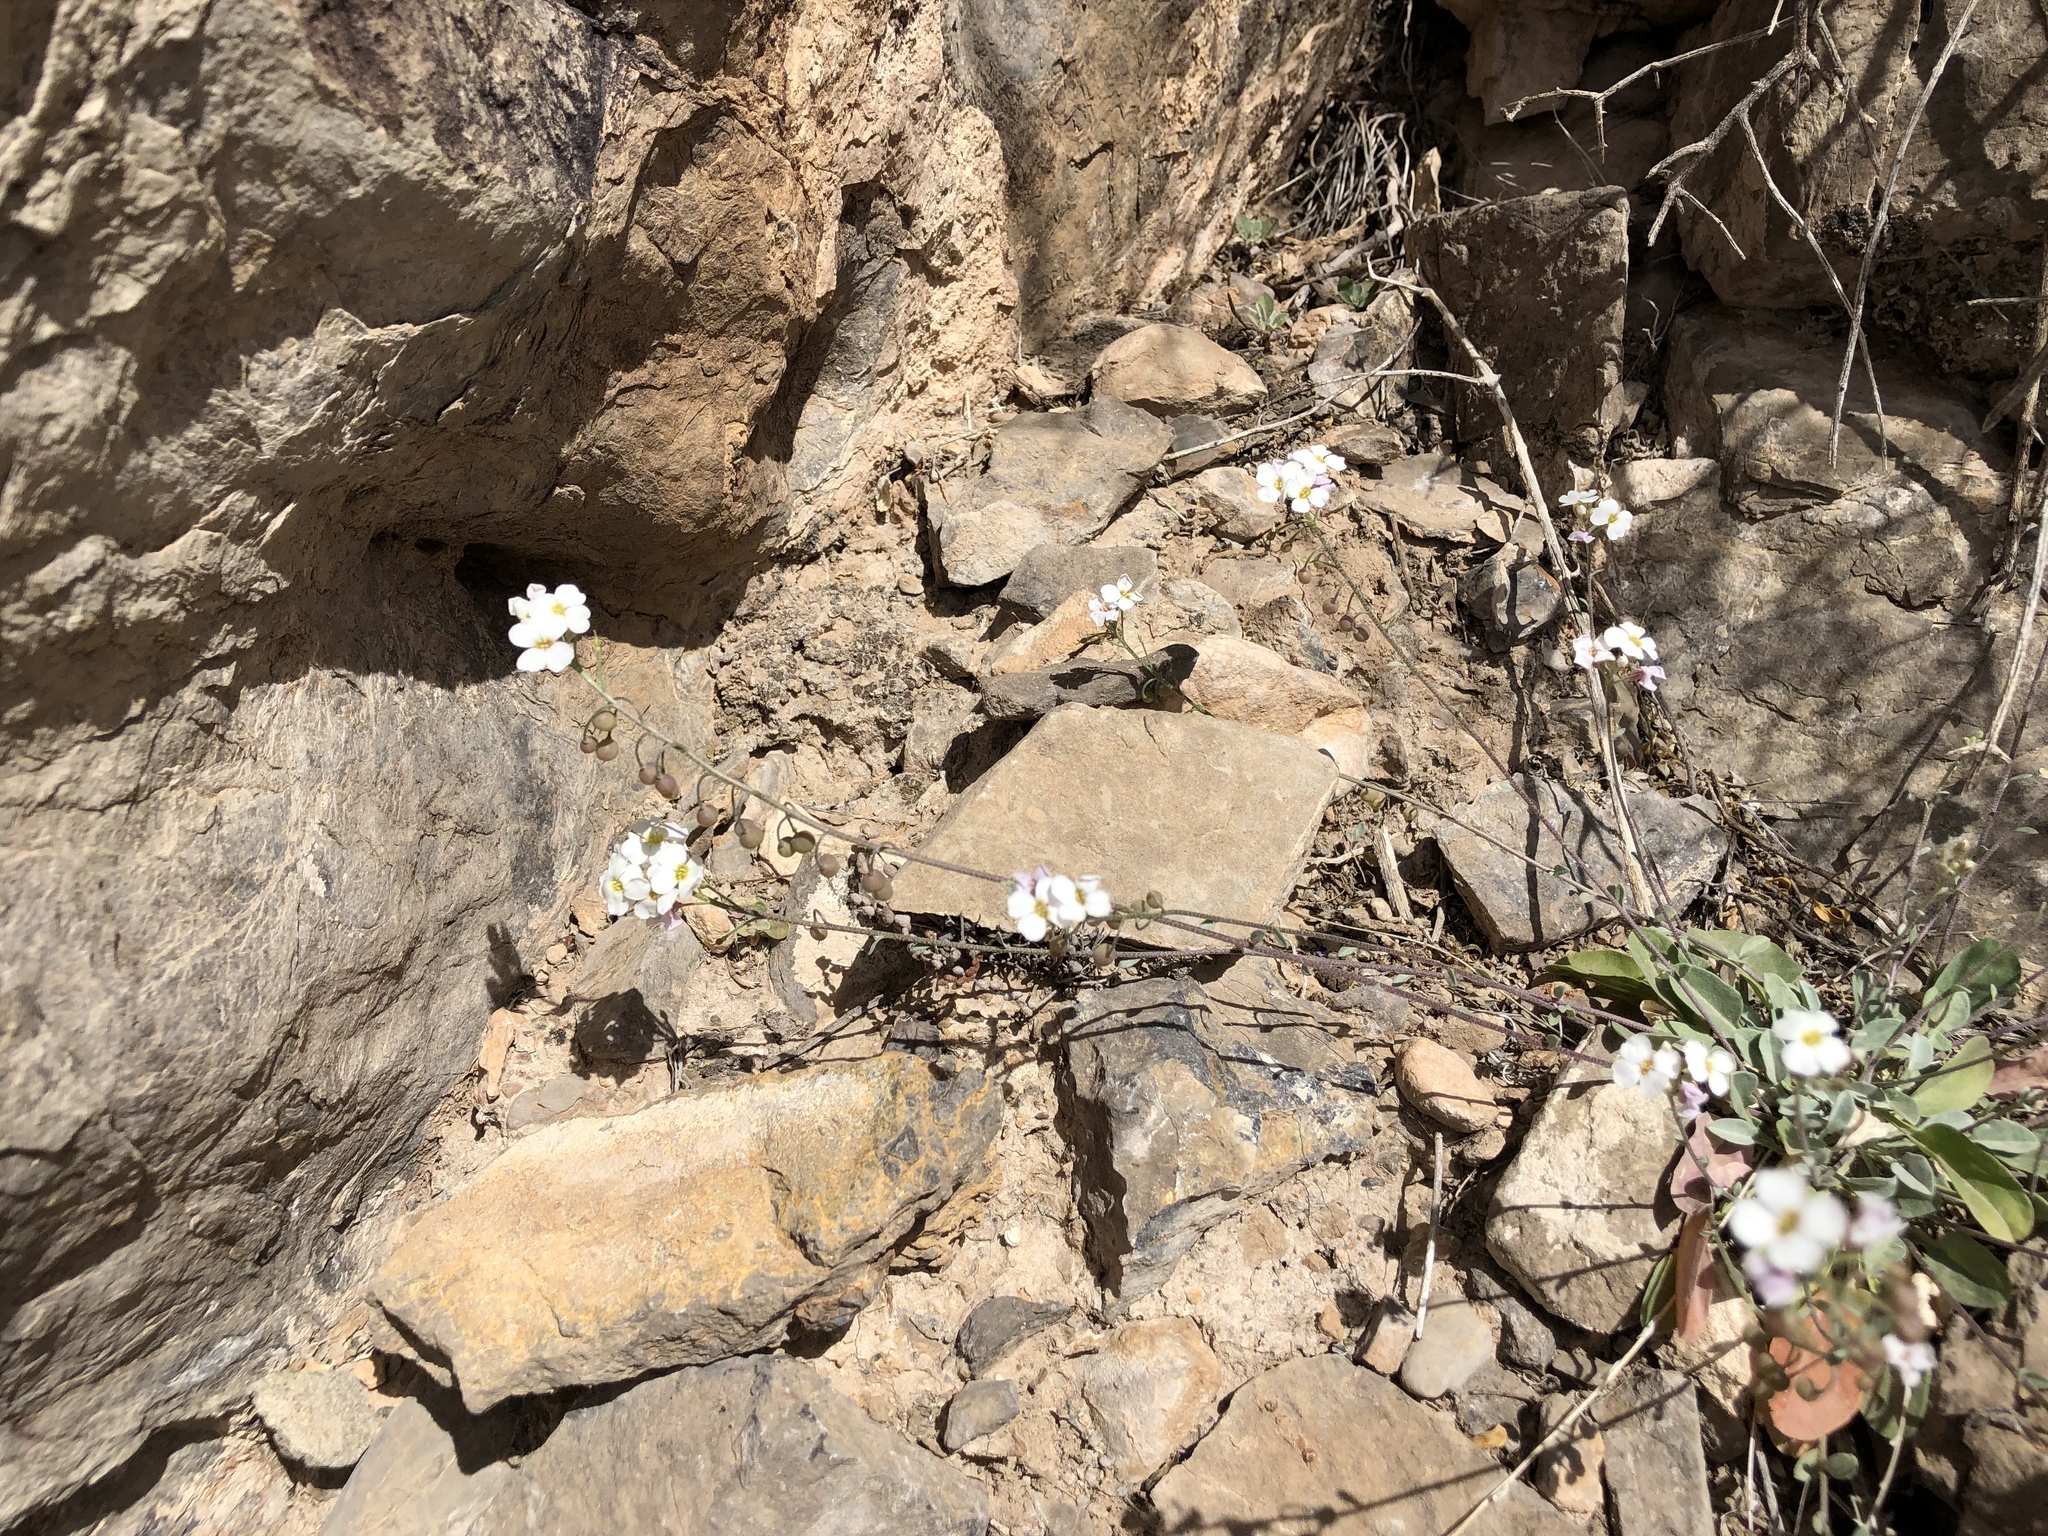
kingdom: Plantae
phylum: Tracheophyta
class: Magnoliopsida
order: Brassicales
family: Brassicaceae
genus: Physaria
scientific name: Physaria purpurea
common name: Rose bladderpod
